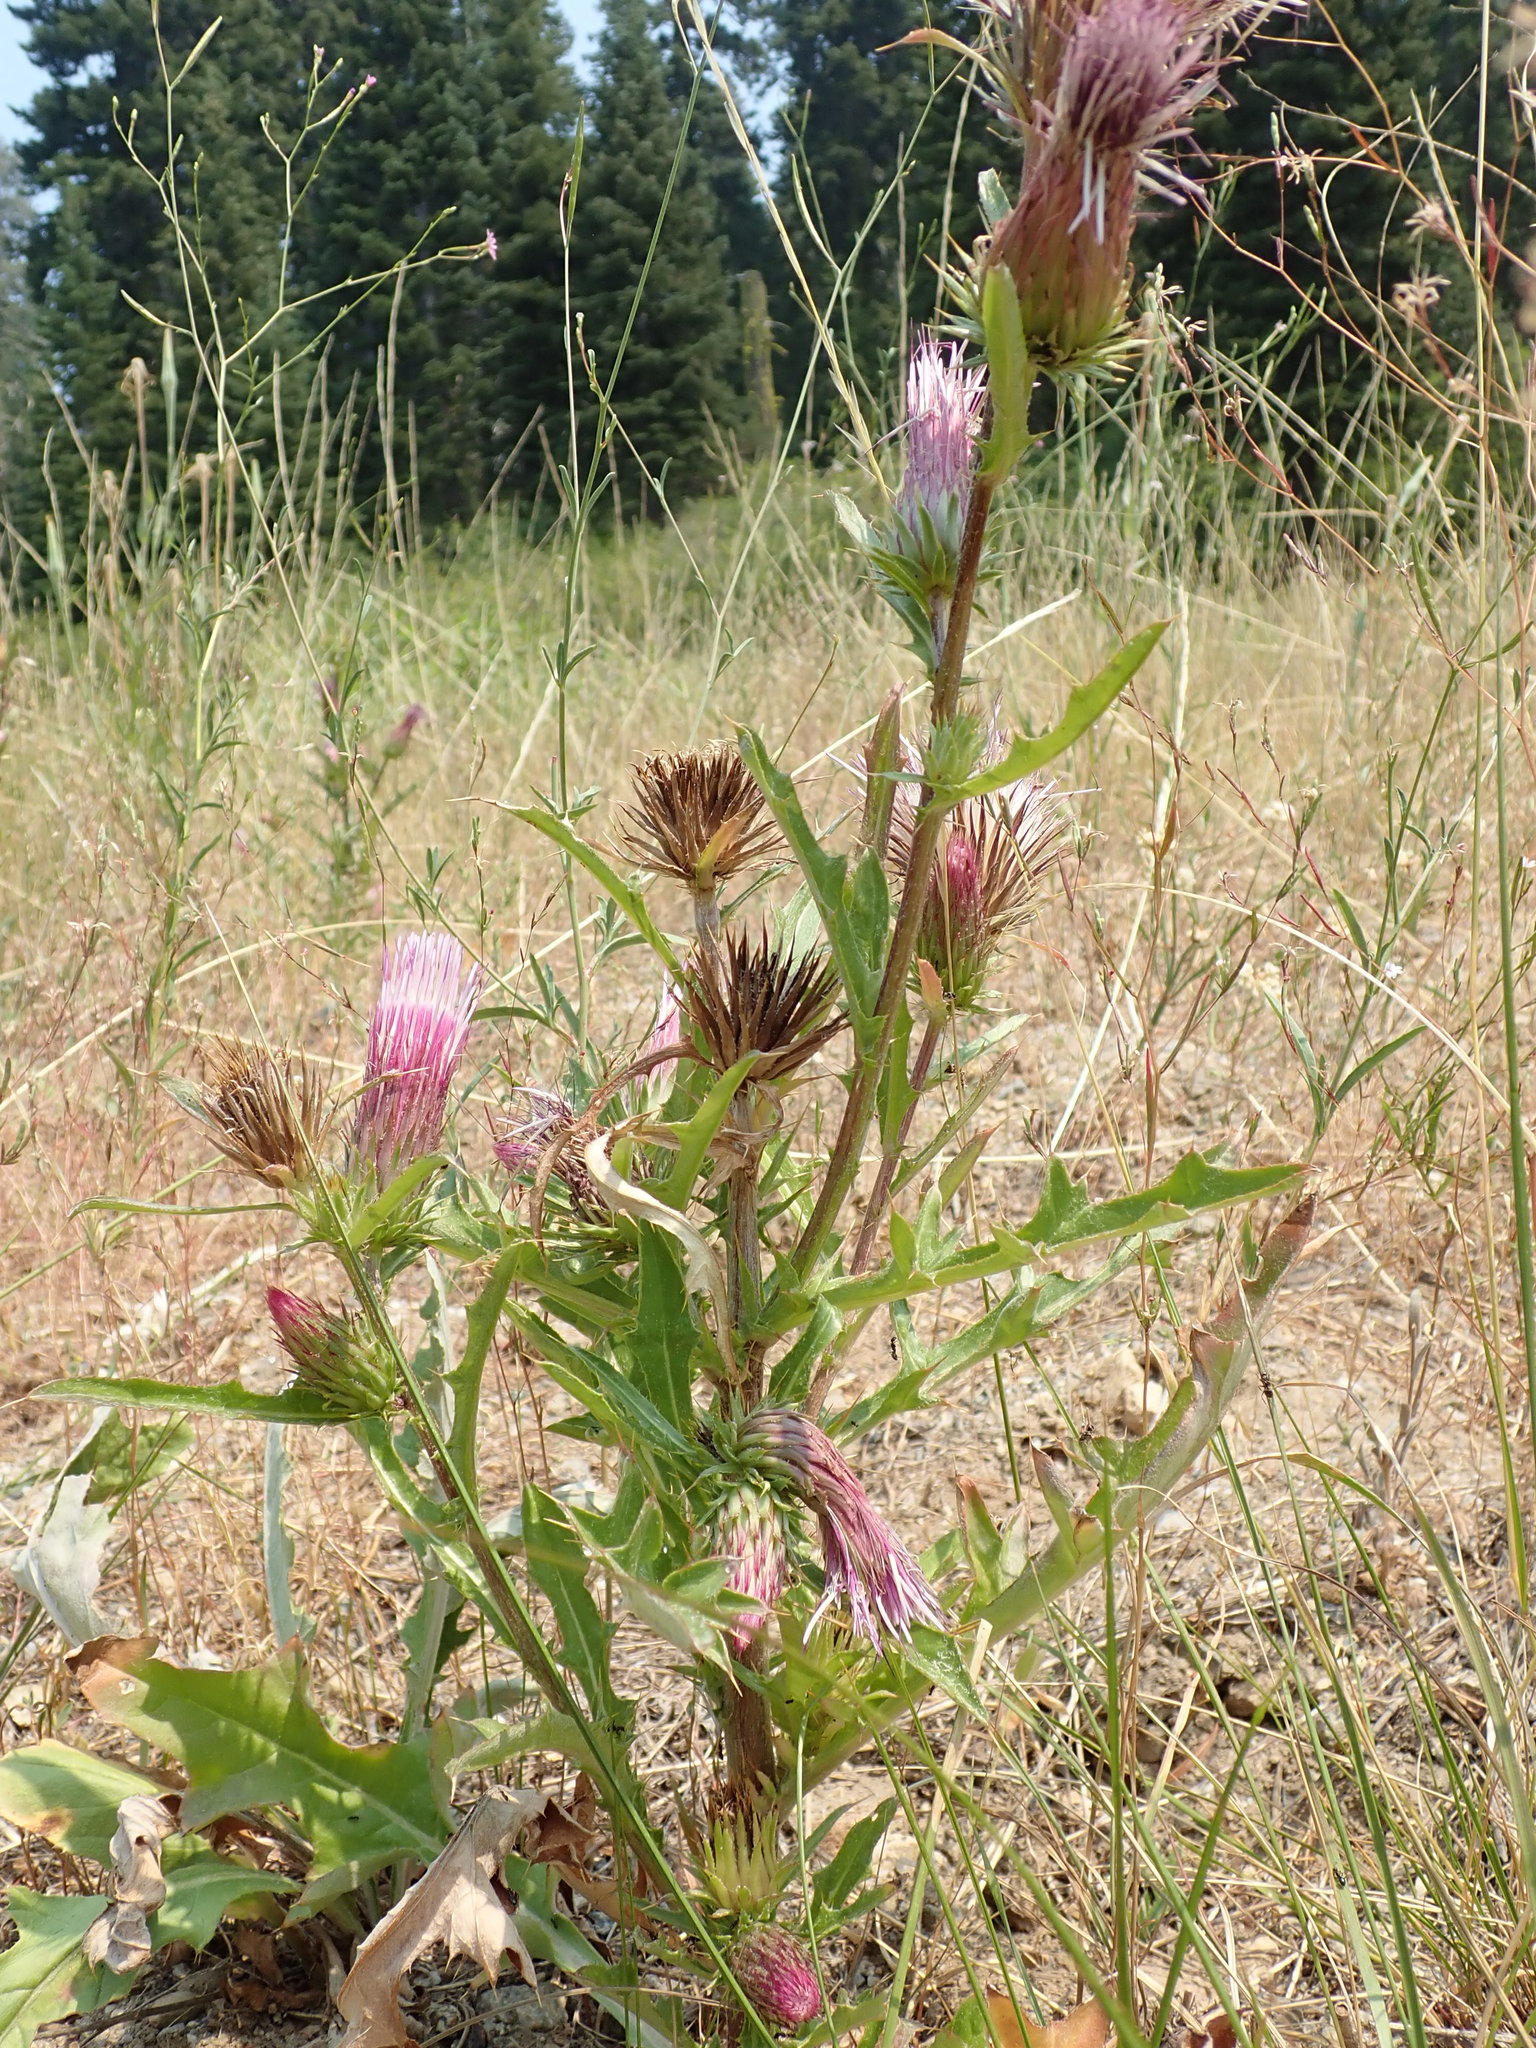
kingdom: Plantae
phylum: Tracheophyta
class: Magnoliopsida
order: Asterales
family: Asteraceae
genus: Cirsium
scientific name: Cirsium andersonii
